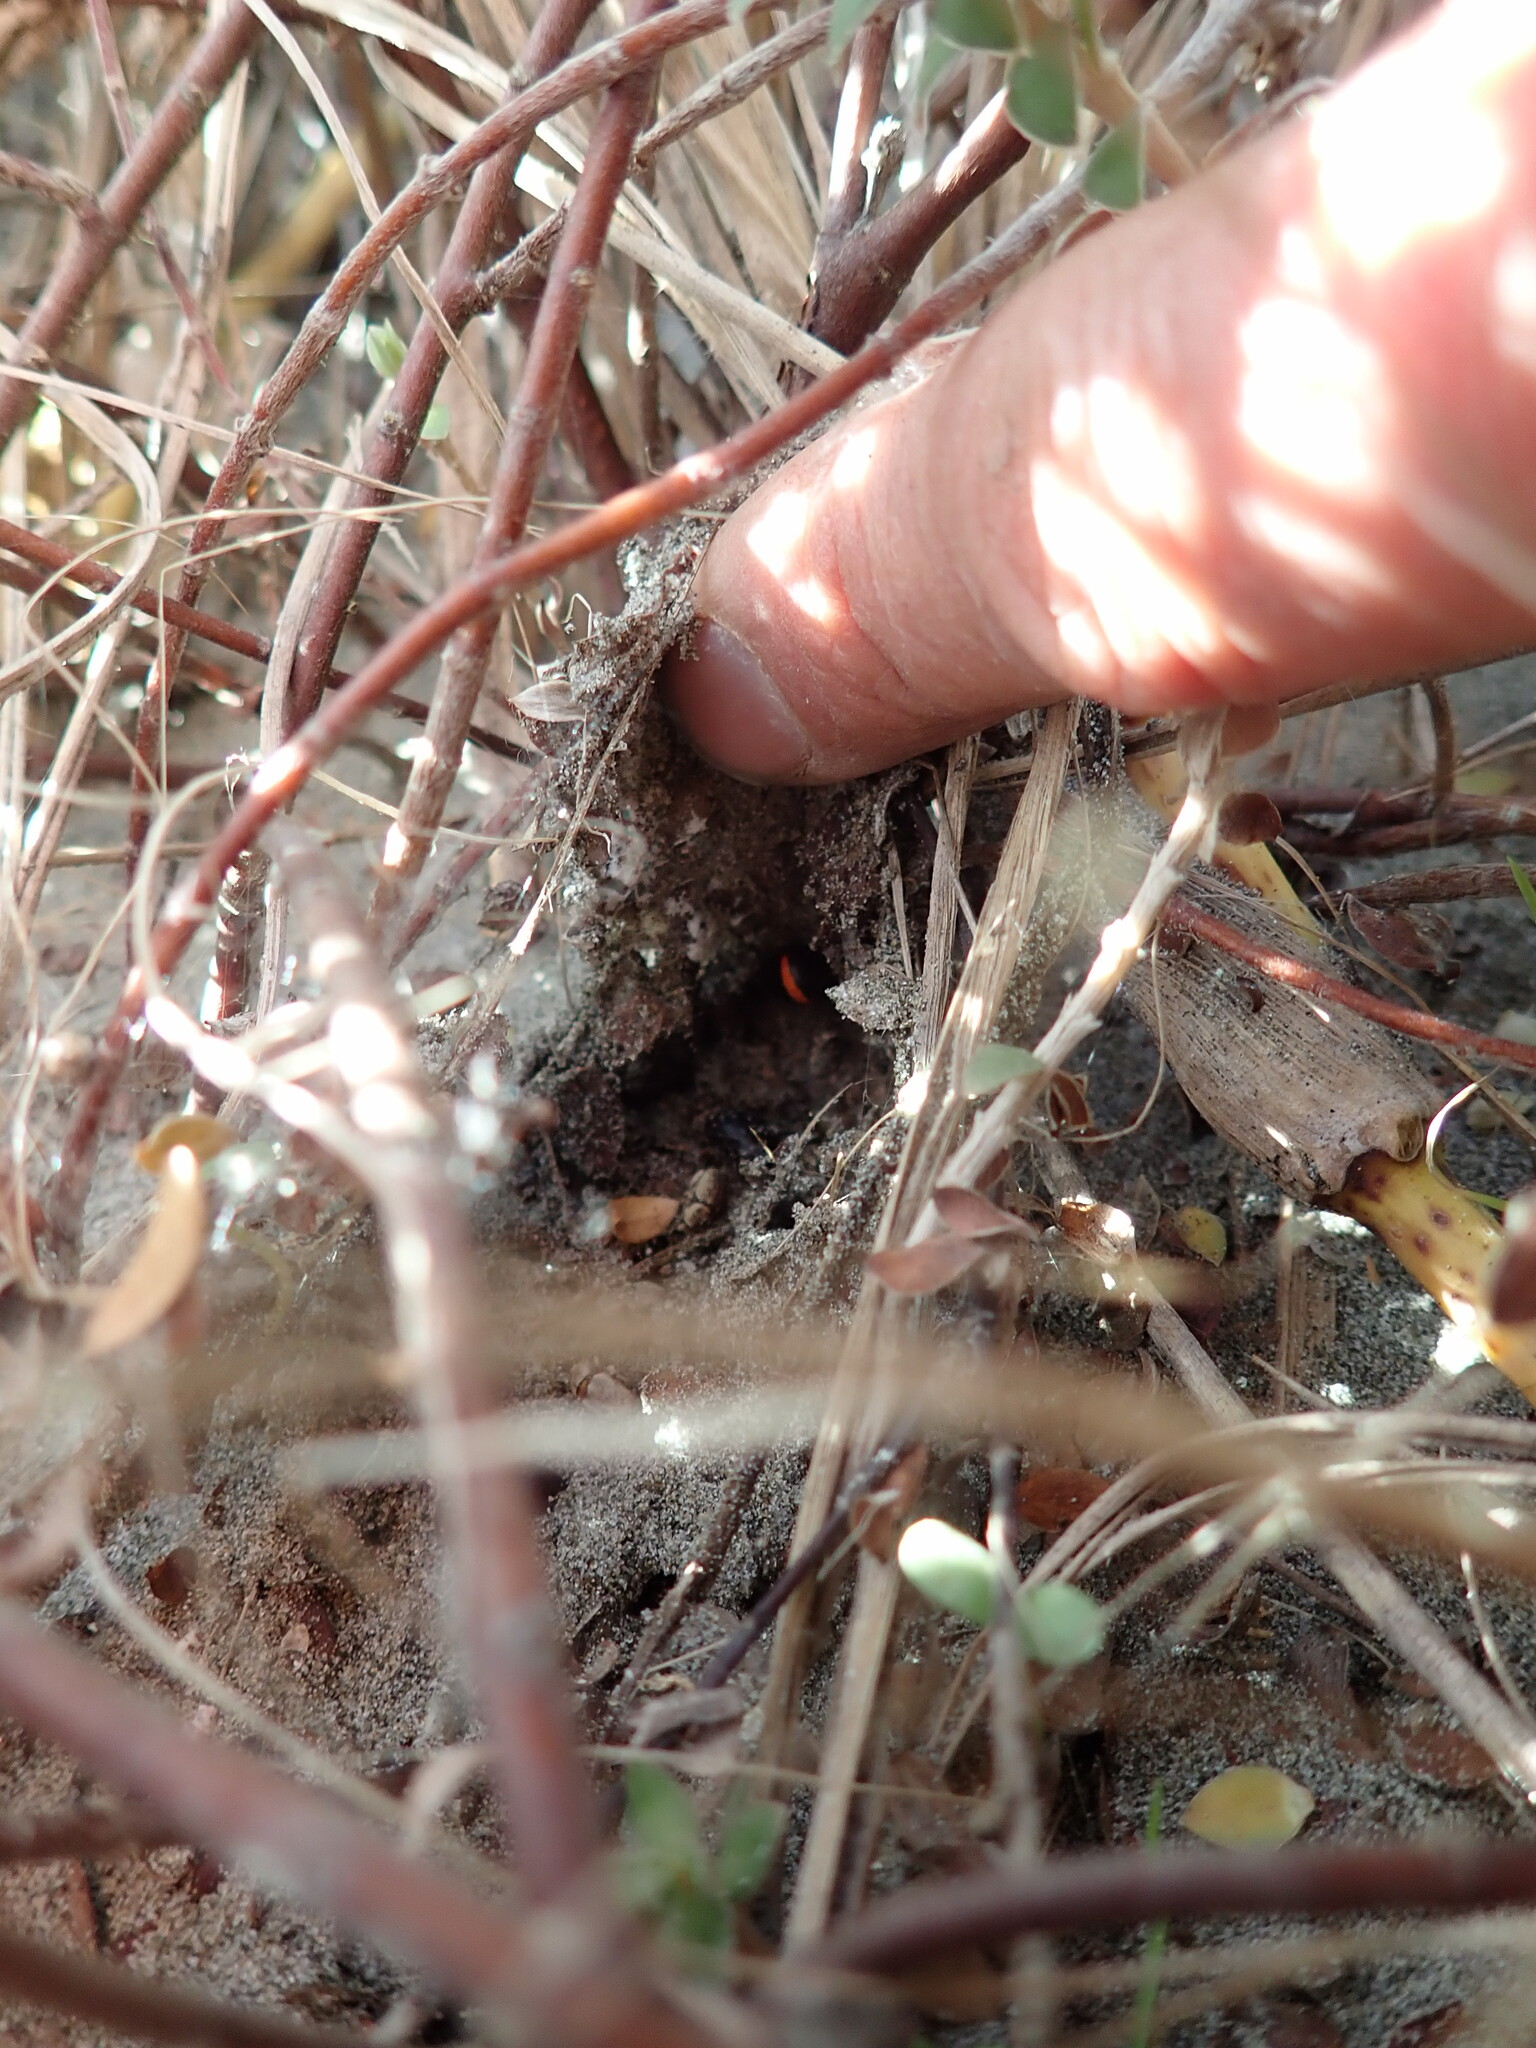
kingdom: Animalia
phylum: Arthropoda
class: Arachnida
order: Araneae
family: Theridiidae
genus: Latrodectus
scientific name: Latrodectus katipo
